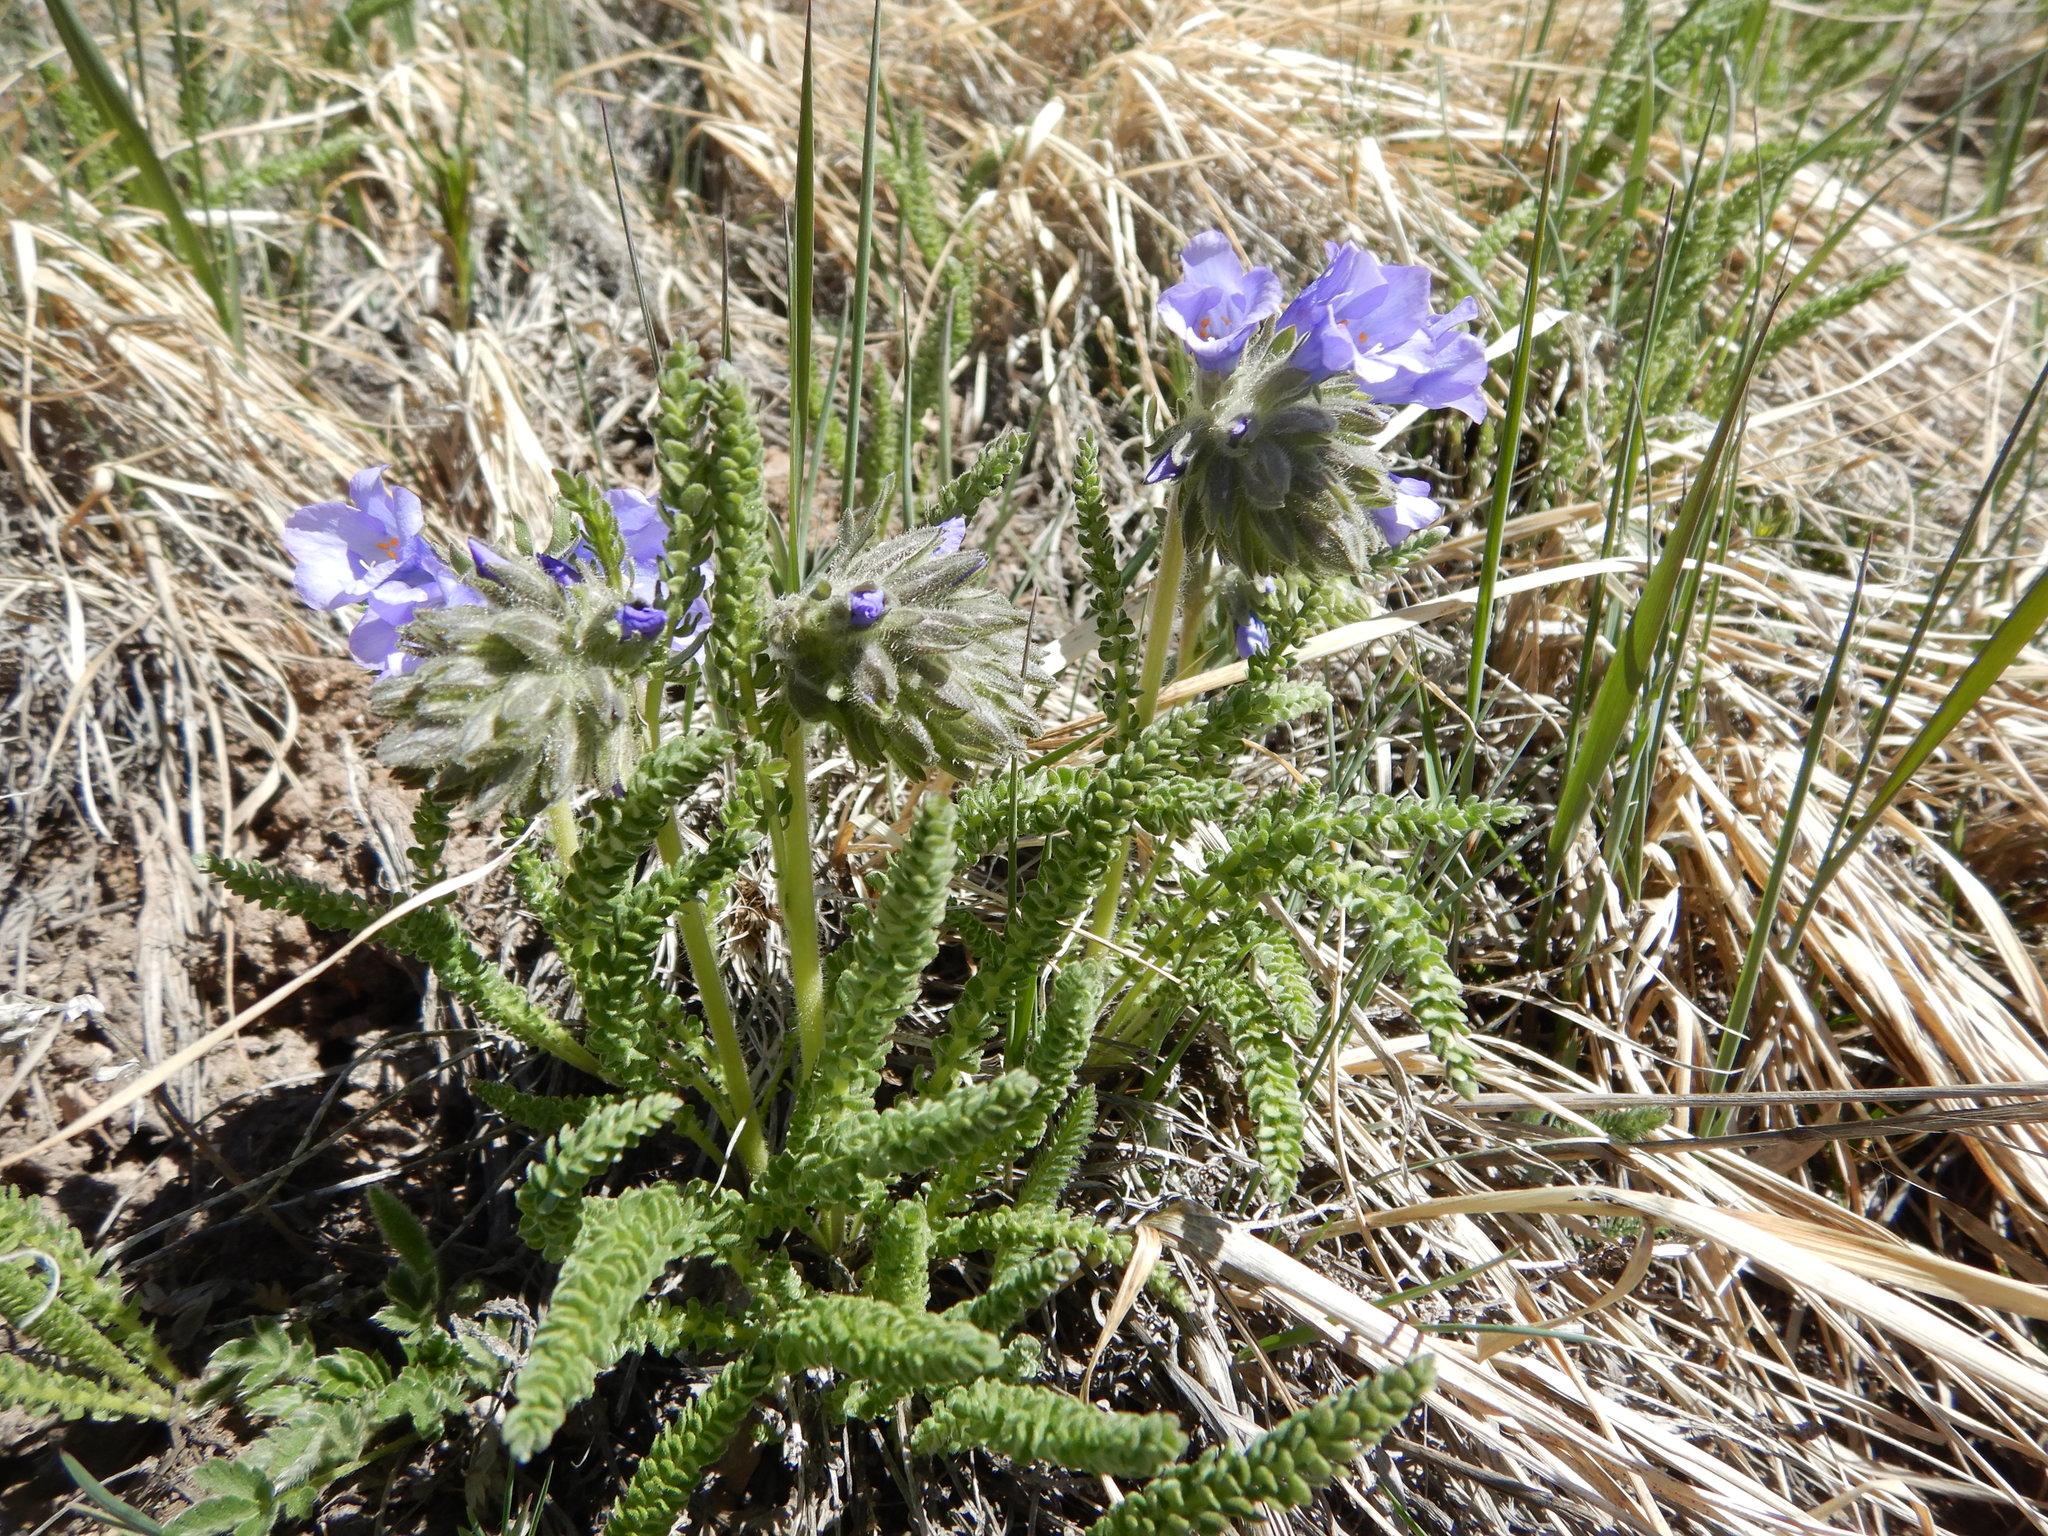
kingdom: Plantae
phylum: Tracheophyta
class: Magnoliopsida
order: Ericales
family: Polemoniaceae
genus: Polemonium
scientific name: Polemonium viscosum
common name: Skunk jacob's-ladder
